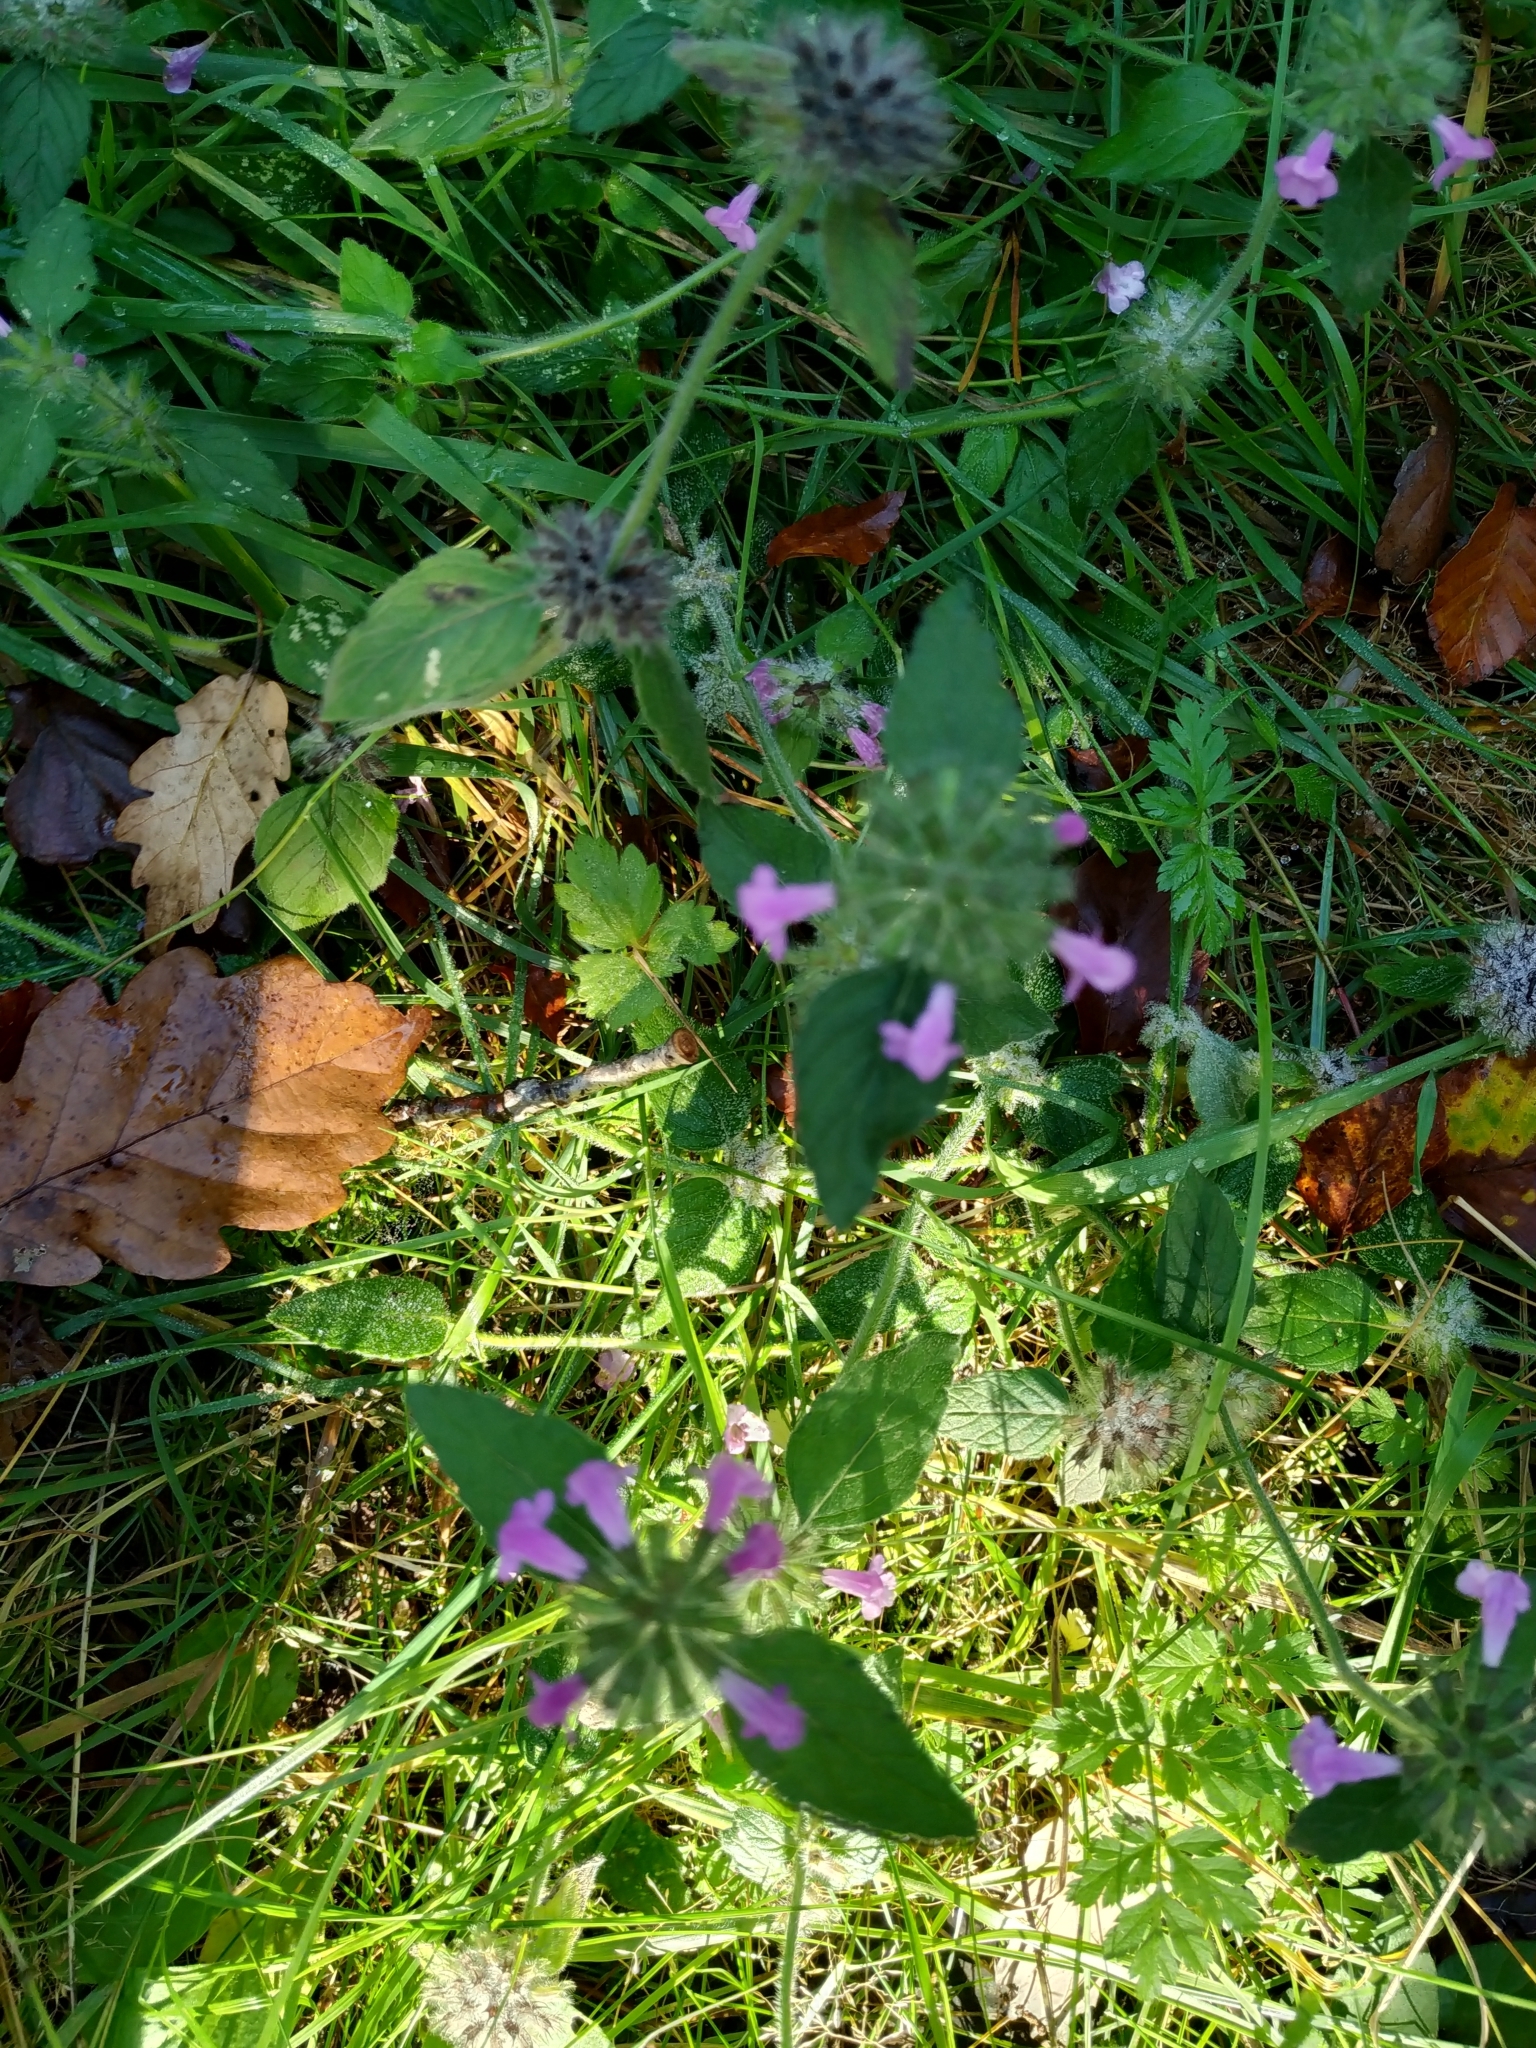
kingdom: Plantae
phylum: Tracheophyta
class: Magnoliopsida
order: Lamiales
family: Lamiaceae
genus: Clinopodium
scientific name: Clinopodium vulgare
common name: Wild basil
